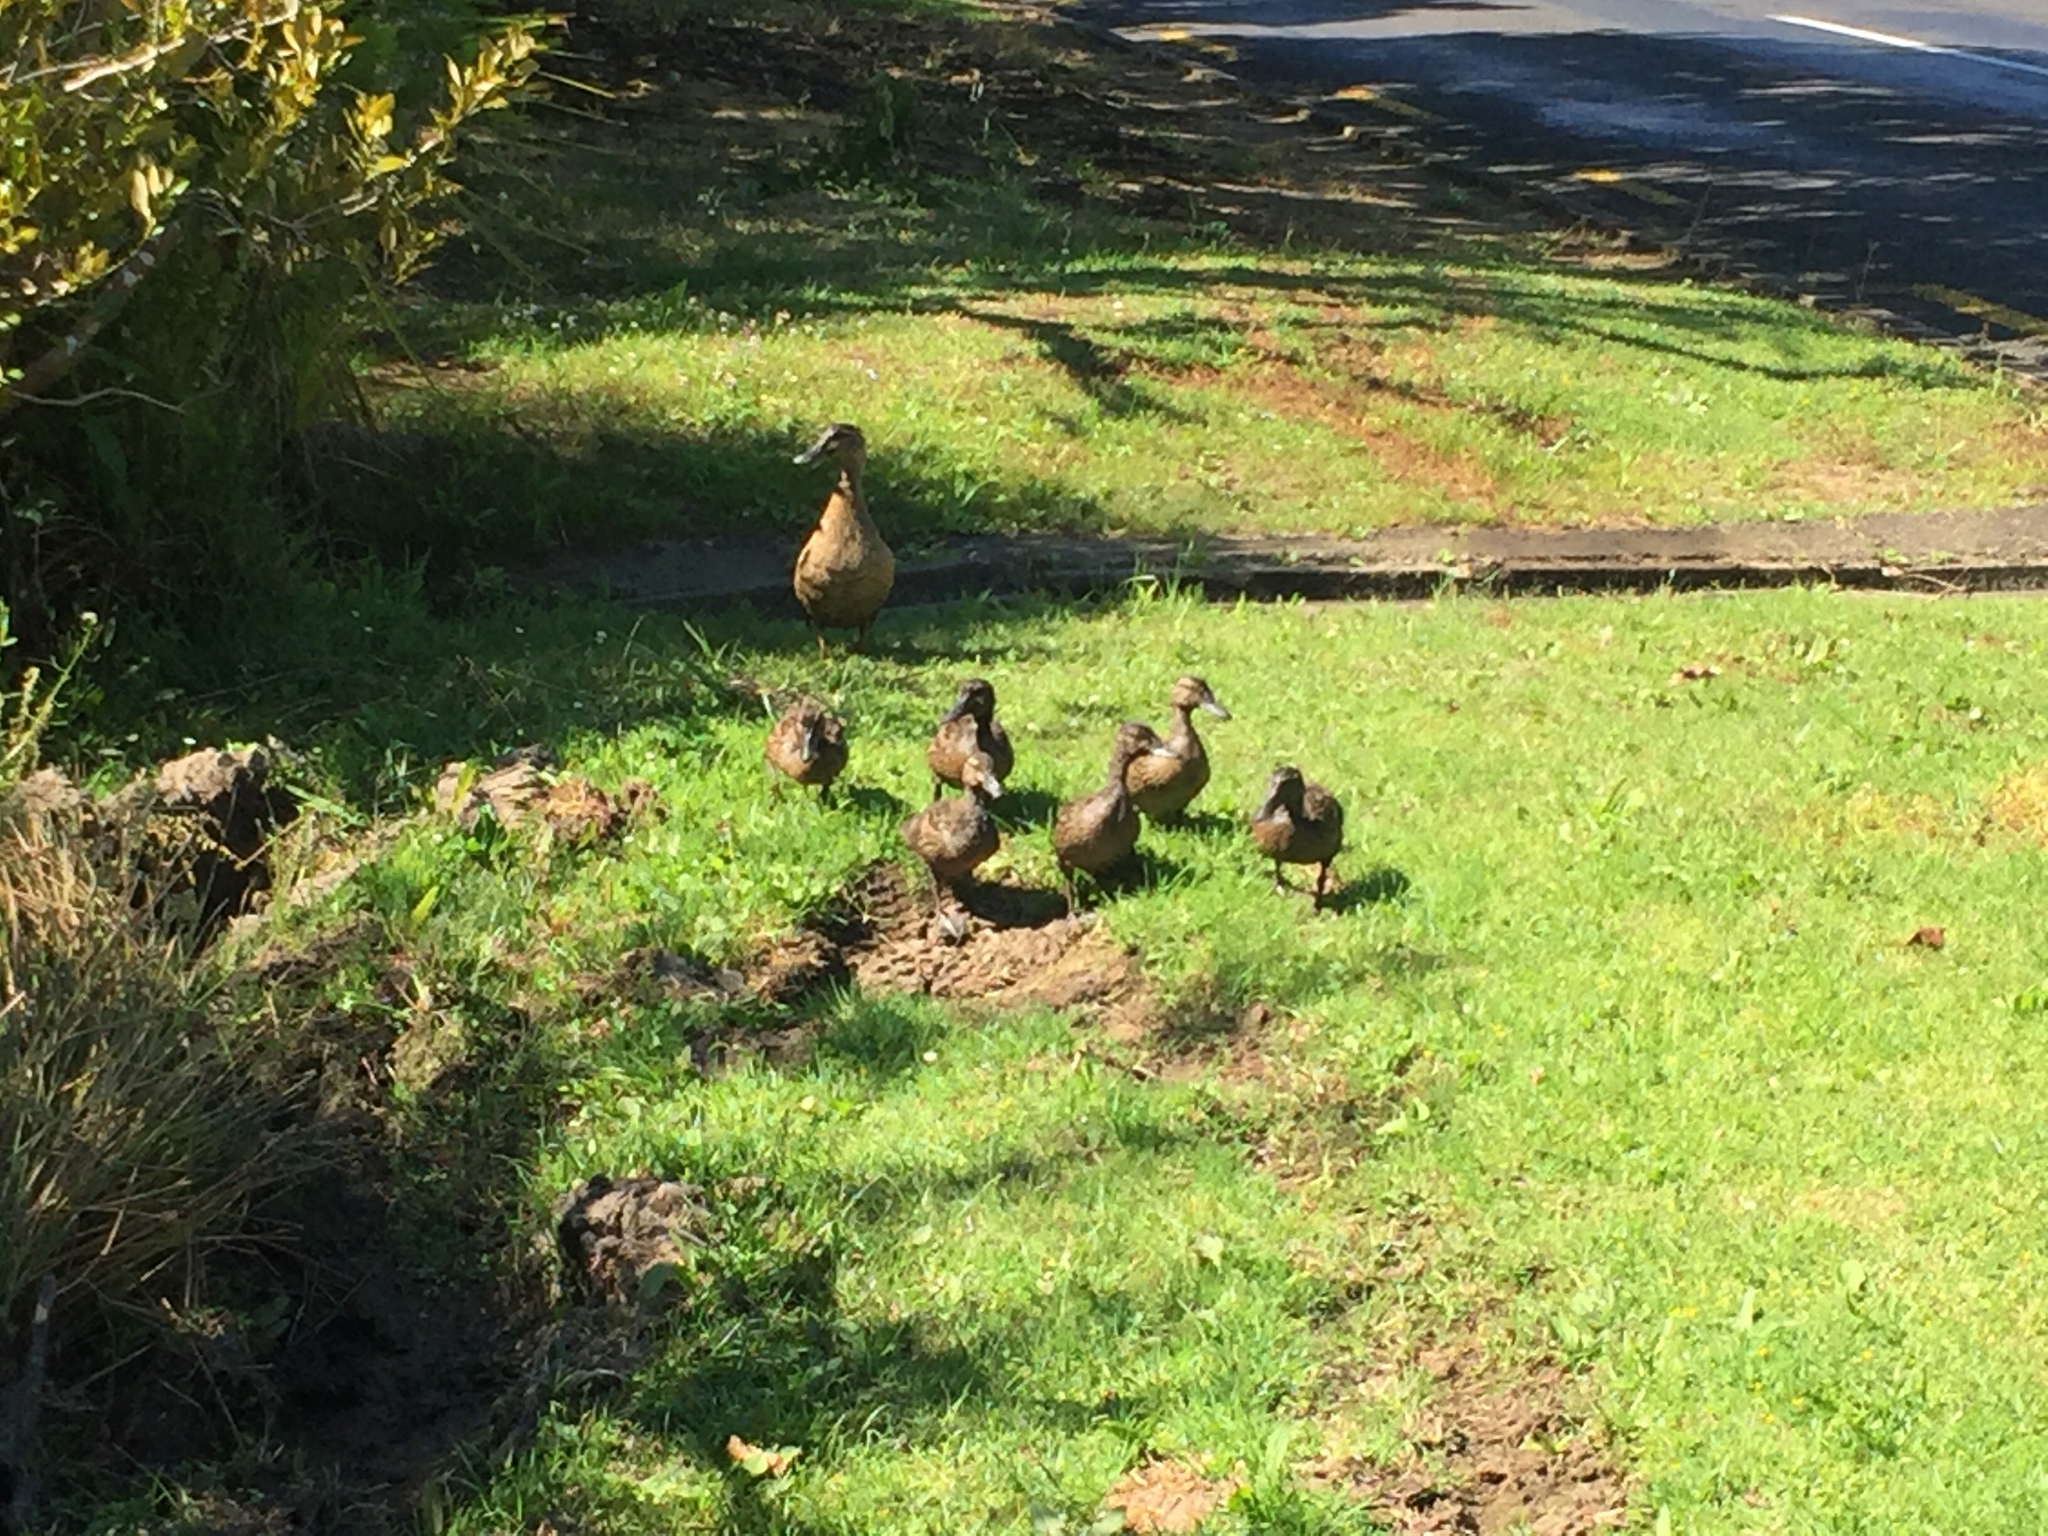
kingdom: Animalia
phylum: Chordata
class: Aves
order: Anseriformes
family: Anatidae
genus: Anas
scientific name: Anas platyrhynchos
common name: Mallard
